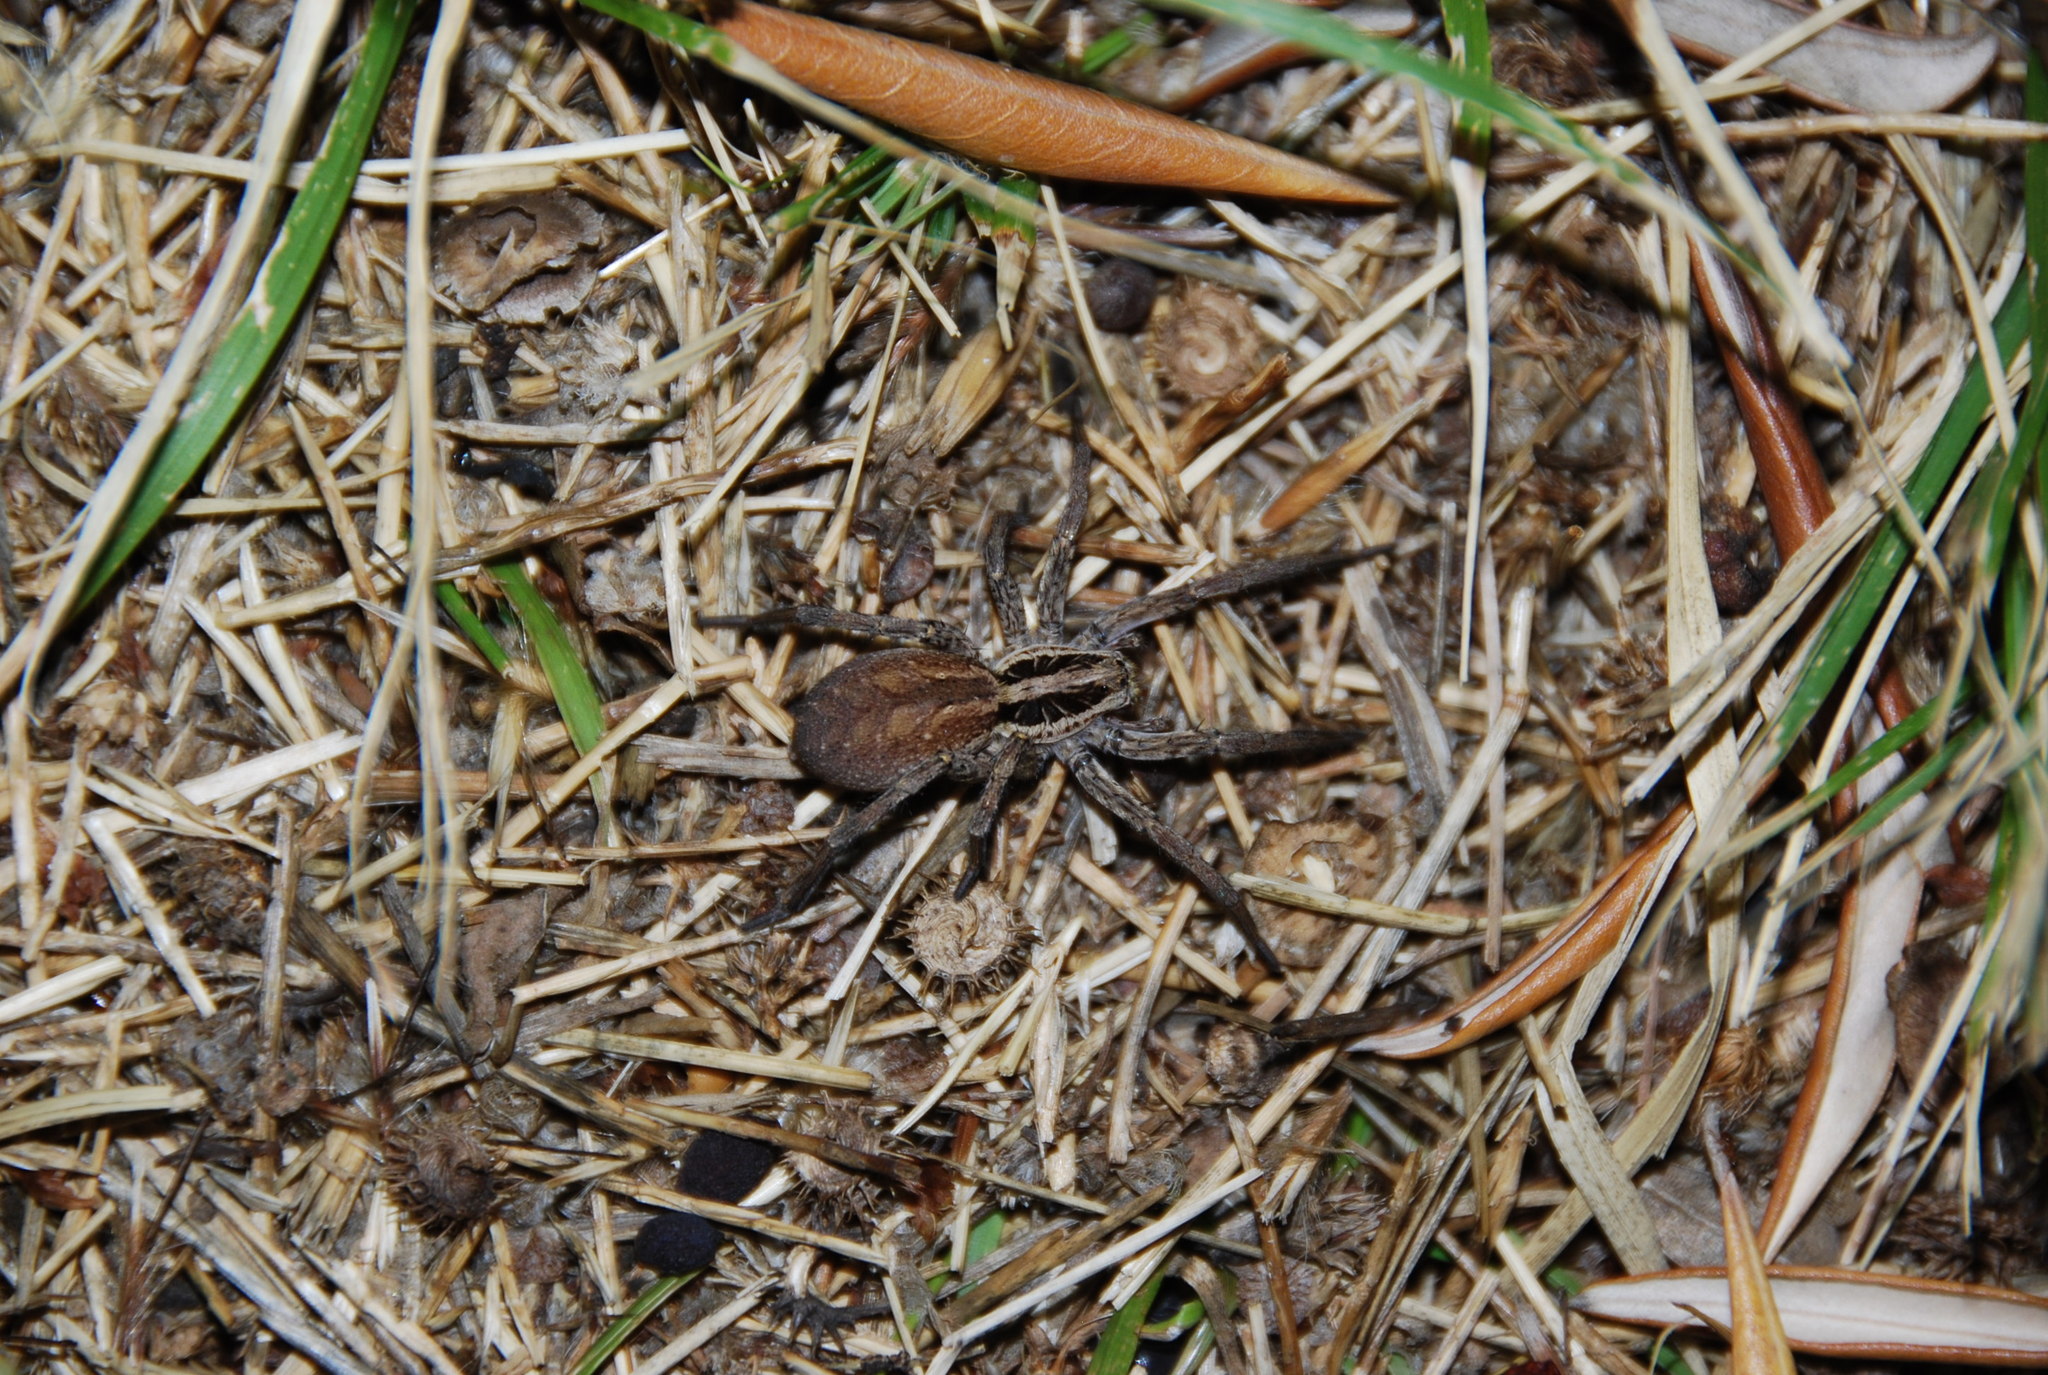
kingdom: Animalia
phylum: Arthropoda
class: Arachnida
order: Araneae
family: Lycosidae
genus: Hogna
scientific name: Hogna radiata
